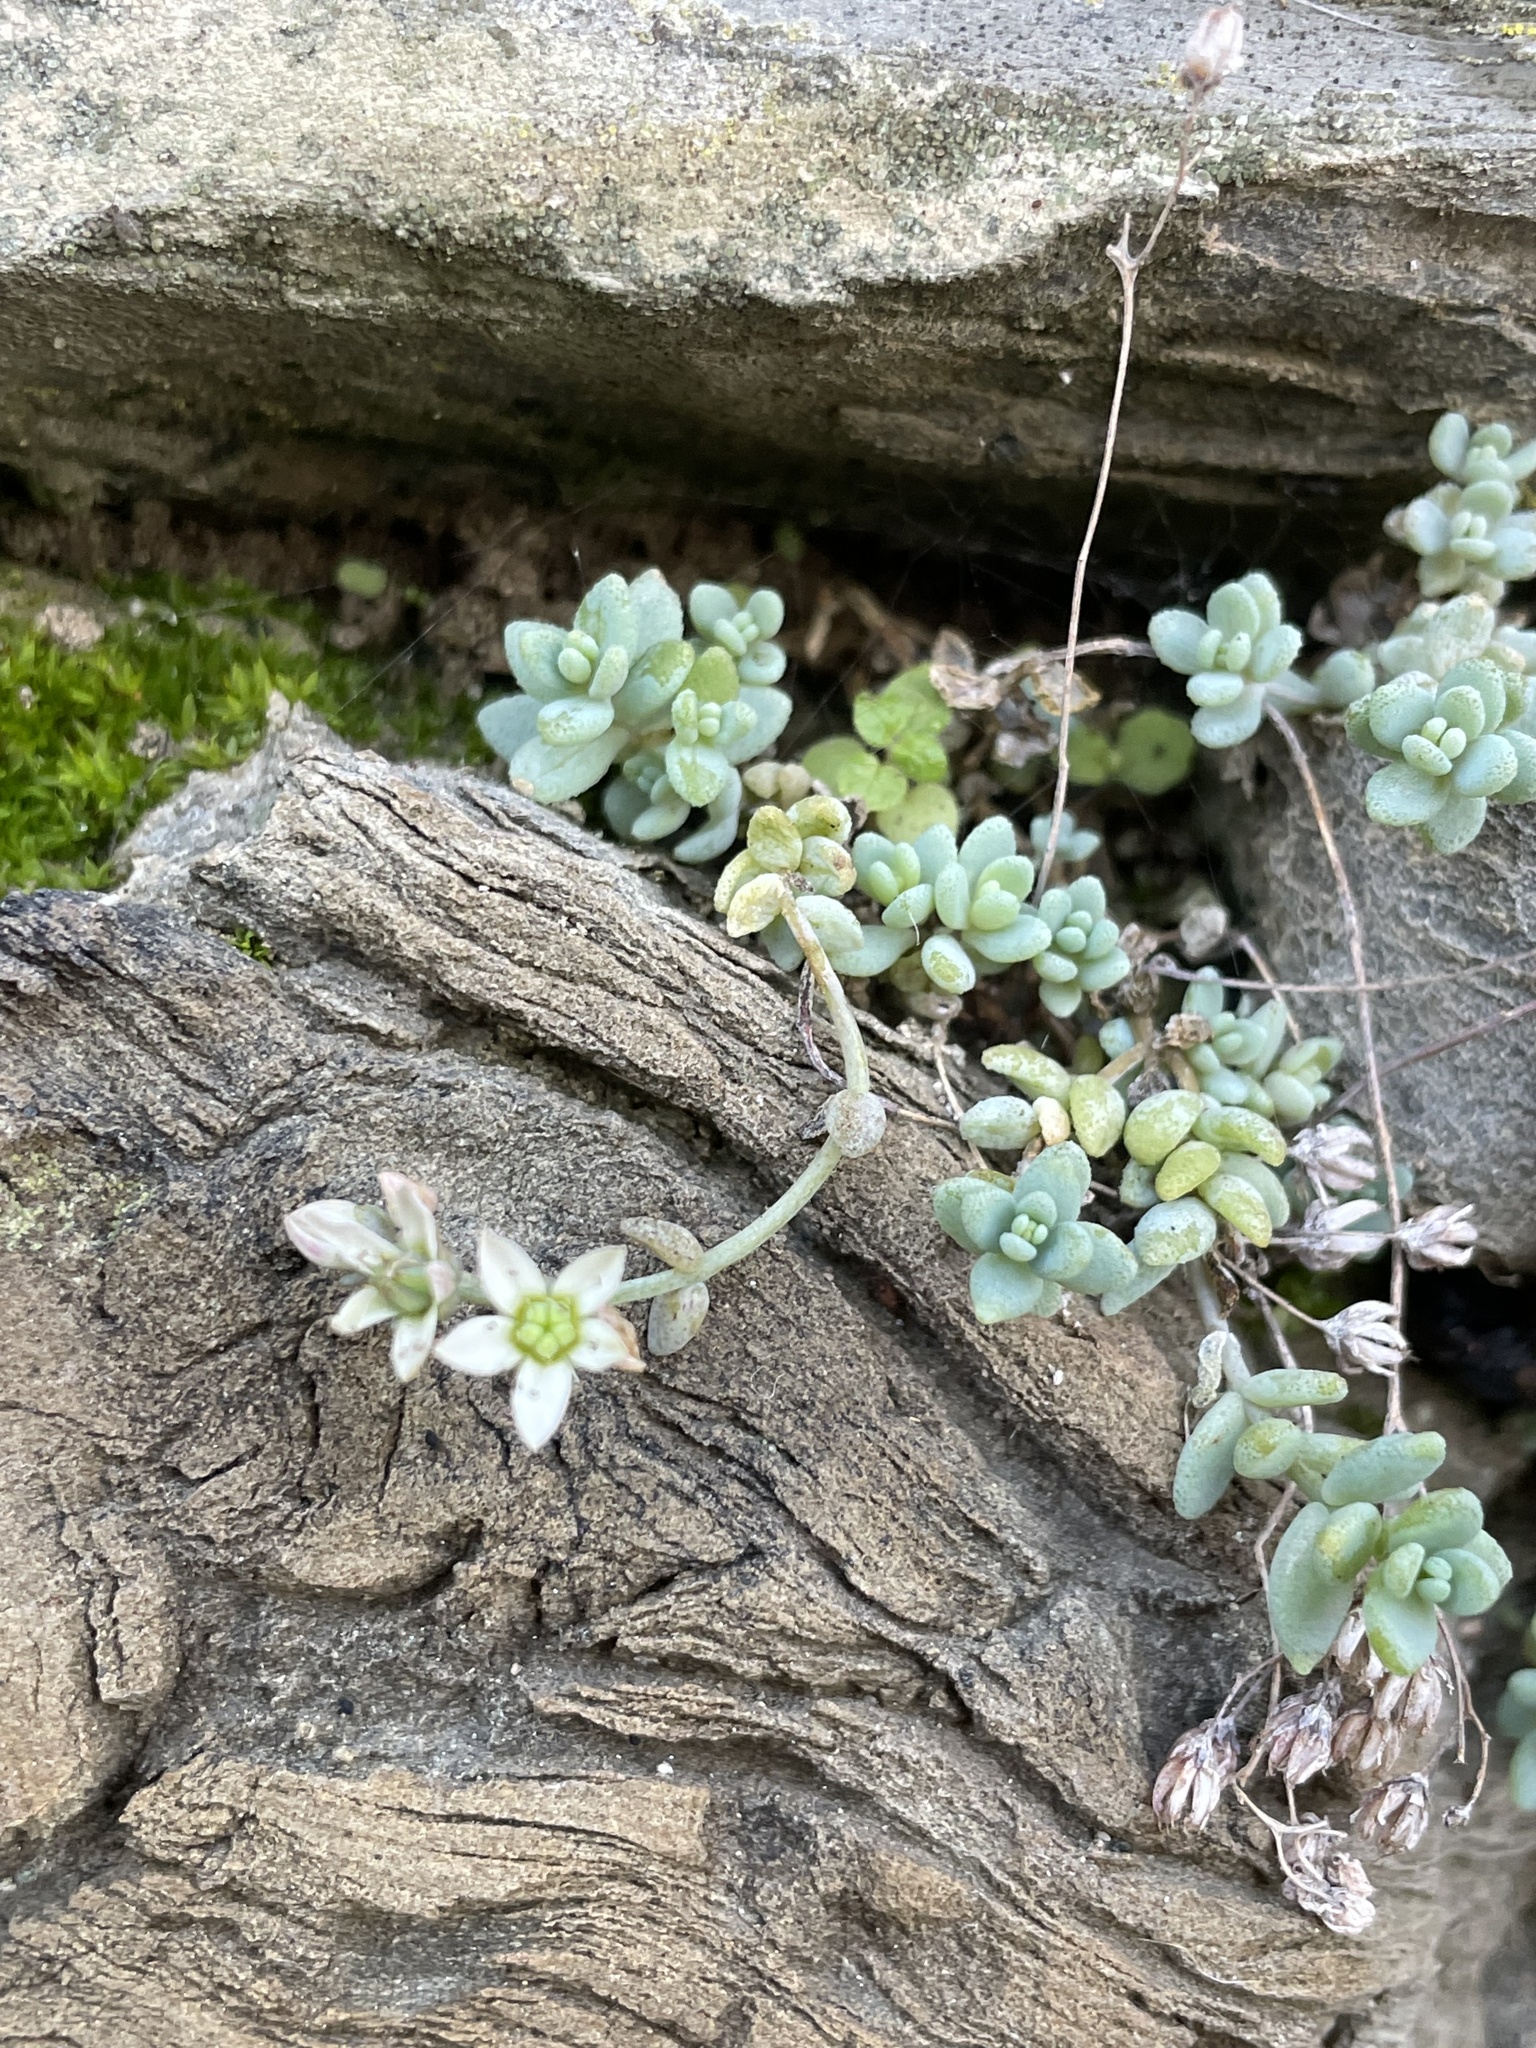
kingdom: Plantae
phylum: Tracheophyta
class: Magnoliopsida
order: Saxifragales
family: Crassulaceae
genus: Sedum
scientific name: Sedum dasyphyllum
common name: Thick-leaf stonecrop
